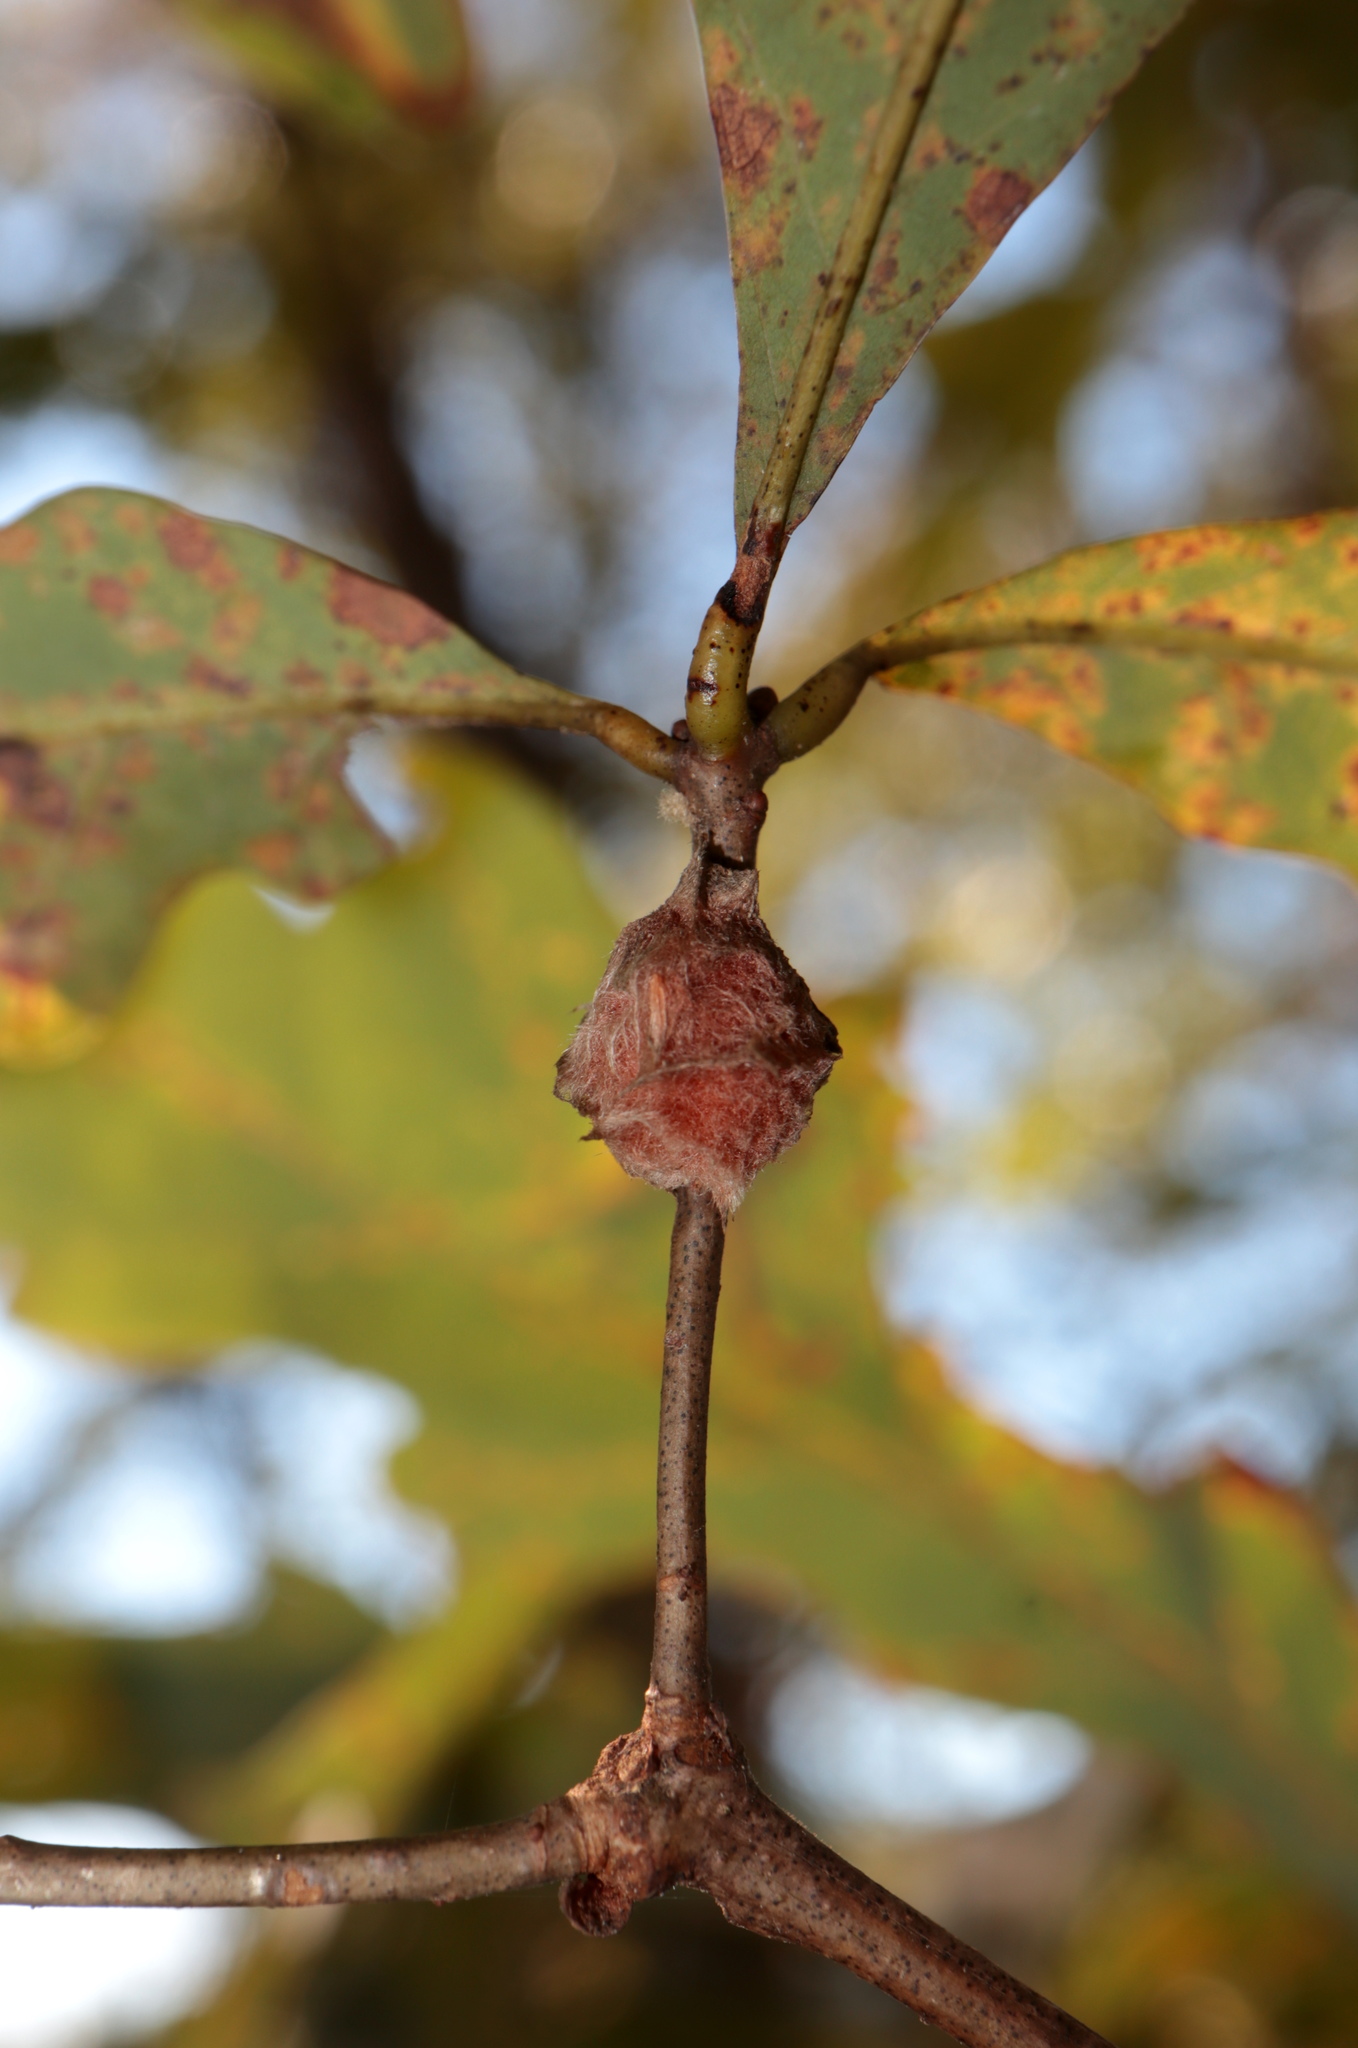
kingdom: Animalia
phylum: Arthropoda
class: Insecta
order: Hymenoptera
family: Cynipidae
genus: Andricus
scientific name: Andricus quercusflocci
